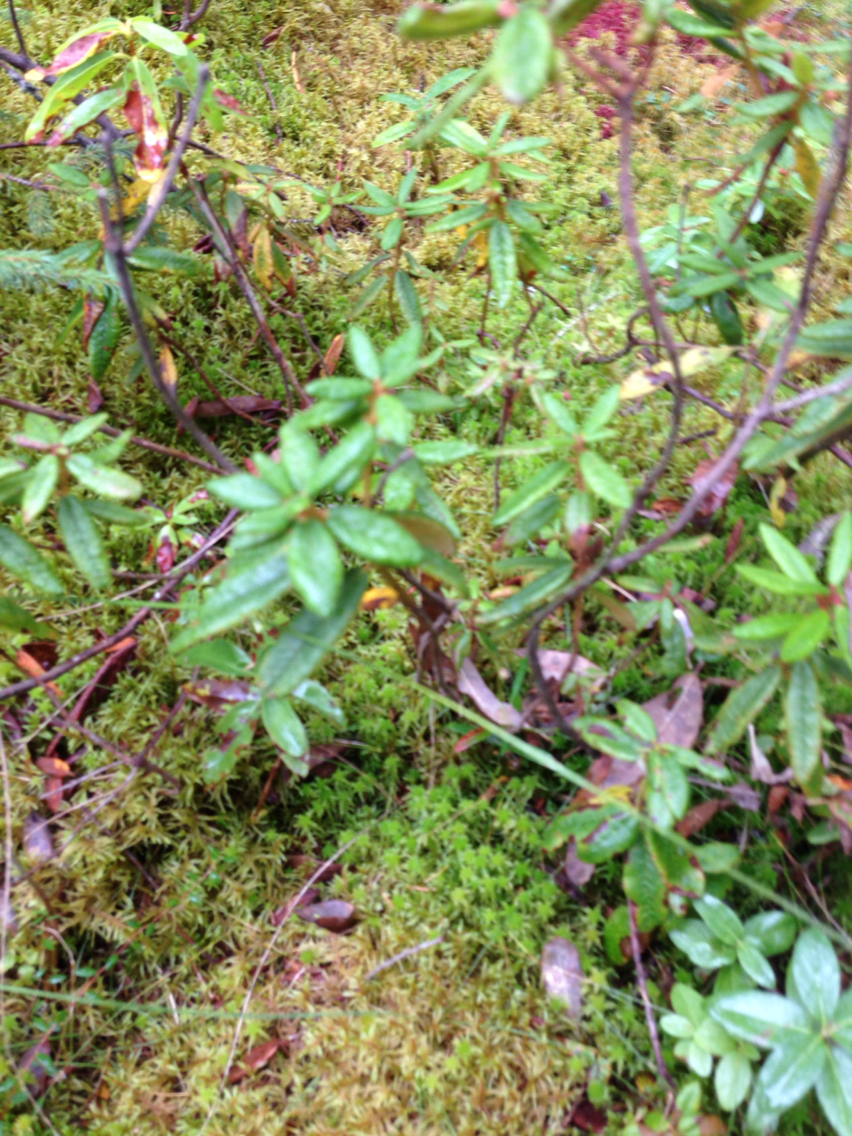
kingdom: Plantae
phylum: Tracheophyta
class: Magnoliopsida
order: Ericales
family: Ericaceae
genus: Rhododendron
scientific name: Rhododendron groenlandicum
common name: Bog labrador tea
